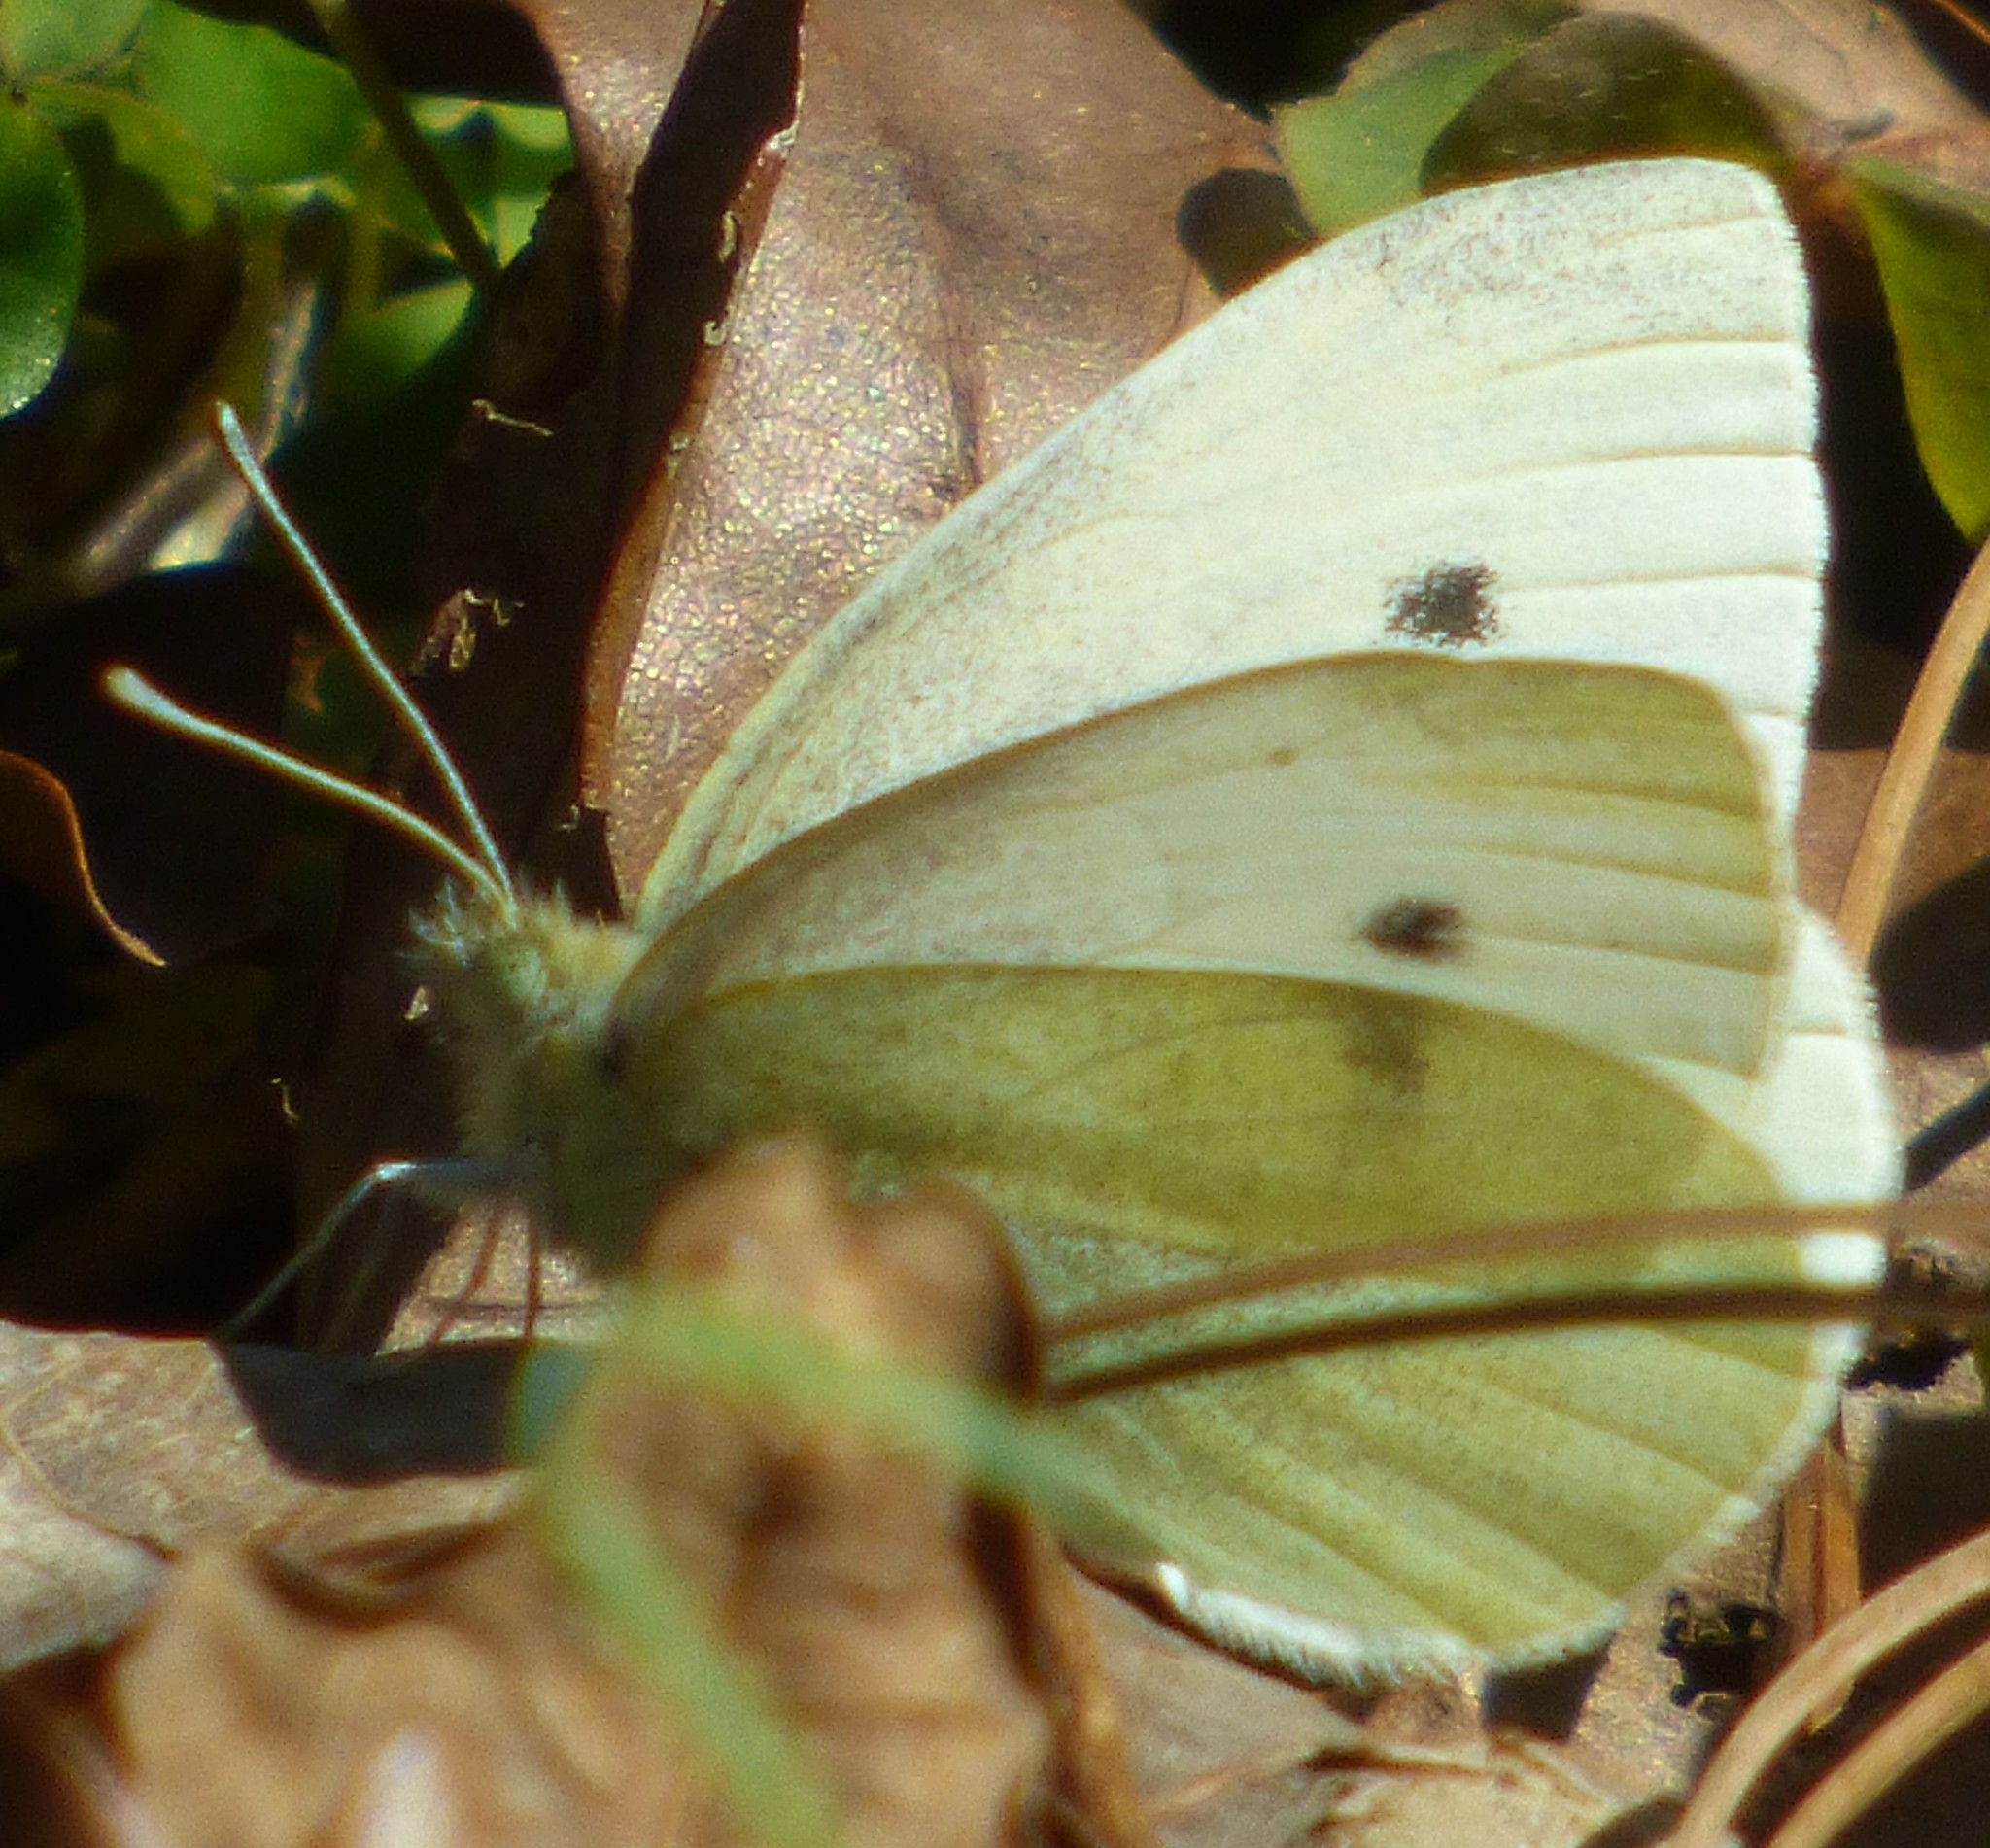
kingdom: Animalia
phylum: Arthropoda
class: Insecta
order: Lepidoptera
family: Pieridae
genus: Pieris
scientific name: Pieris rapae
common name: Small white
